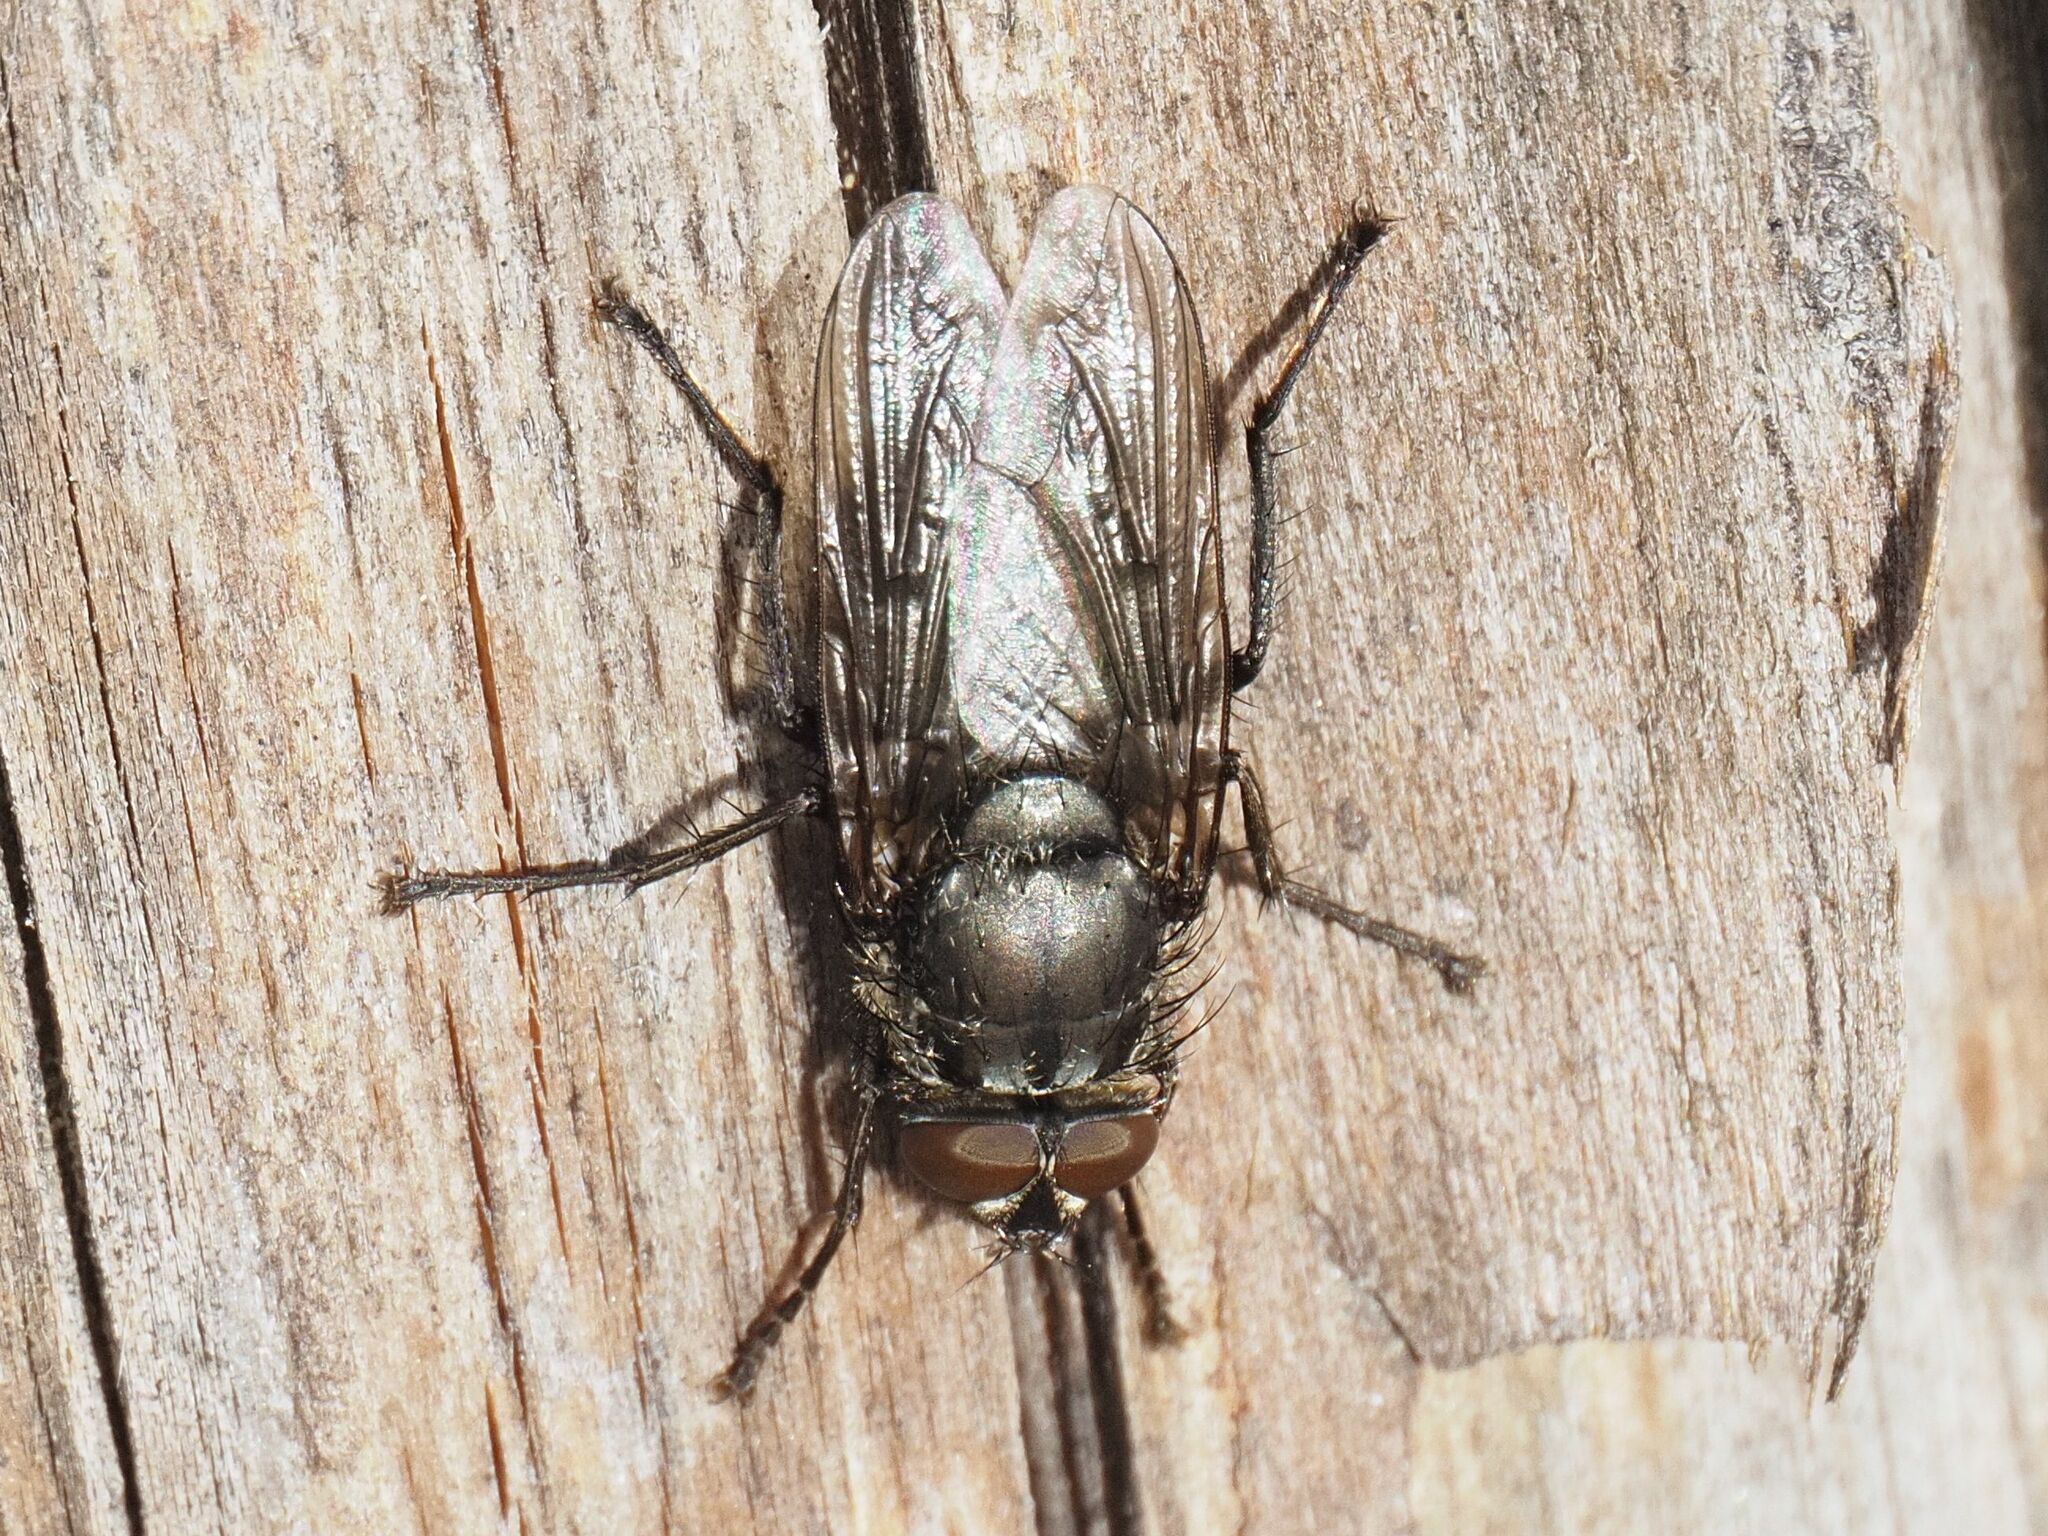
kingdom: Animalia
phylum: Arthropoda
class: Insecta
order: Diptera
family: Polleniidae
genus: Pollenia
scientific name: Pollenia vagabunda
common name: Vagabund cluster fly
